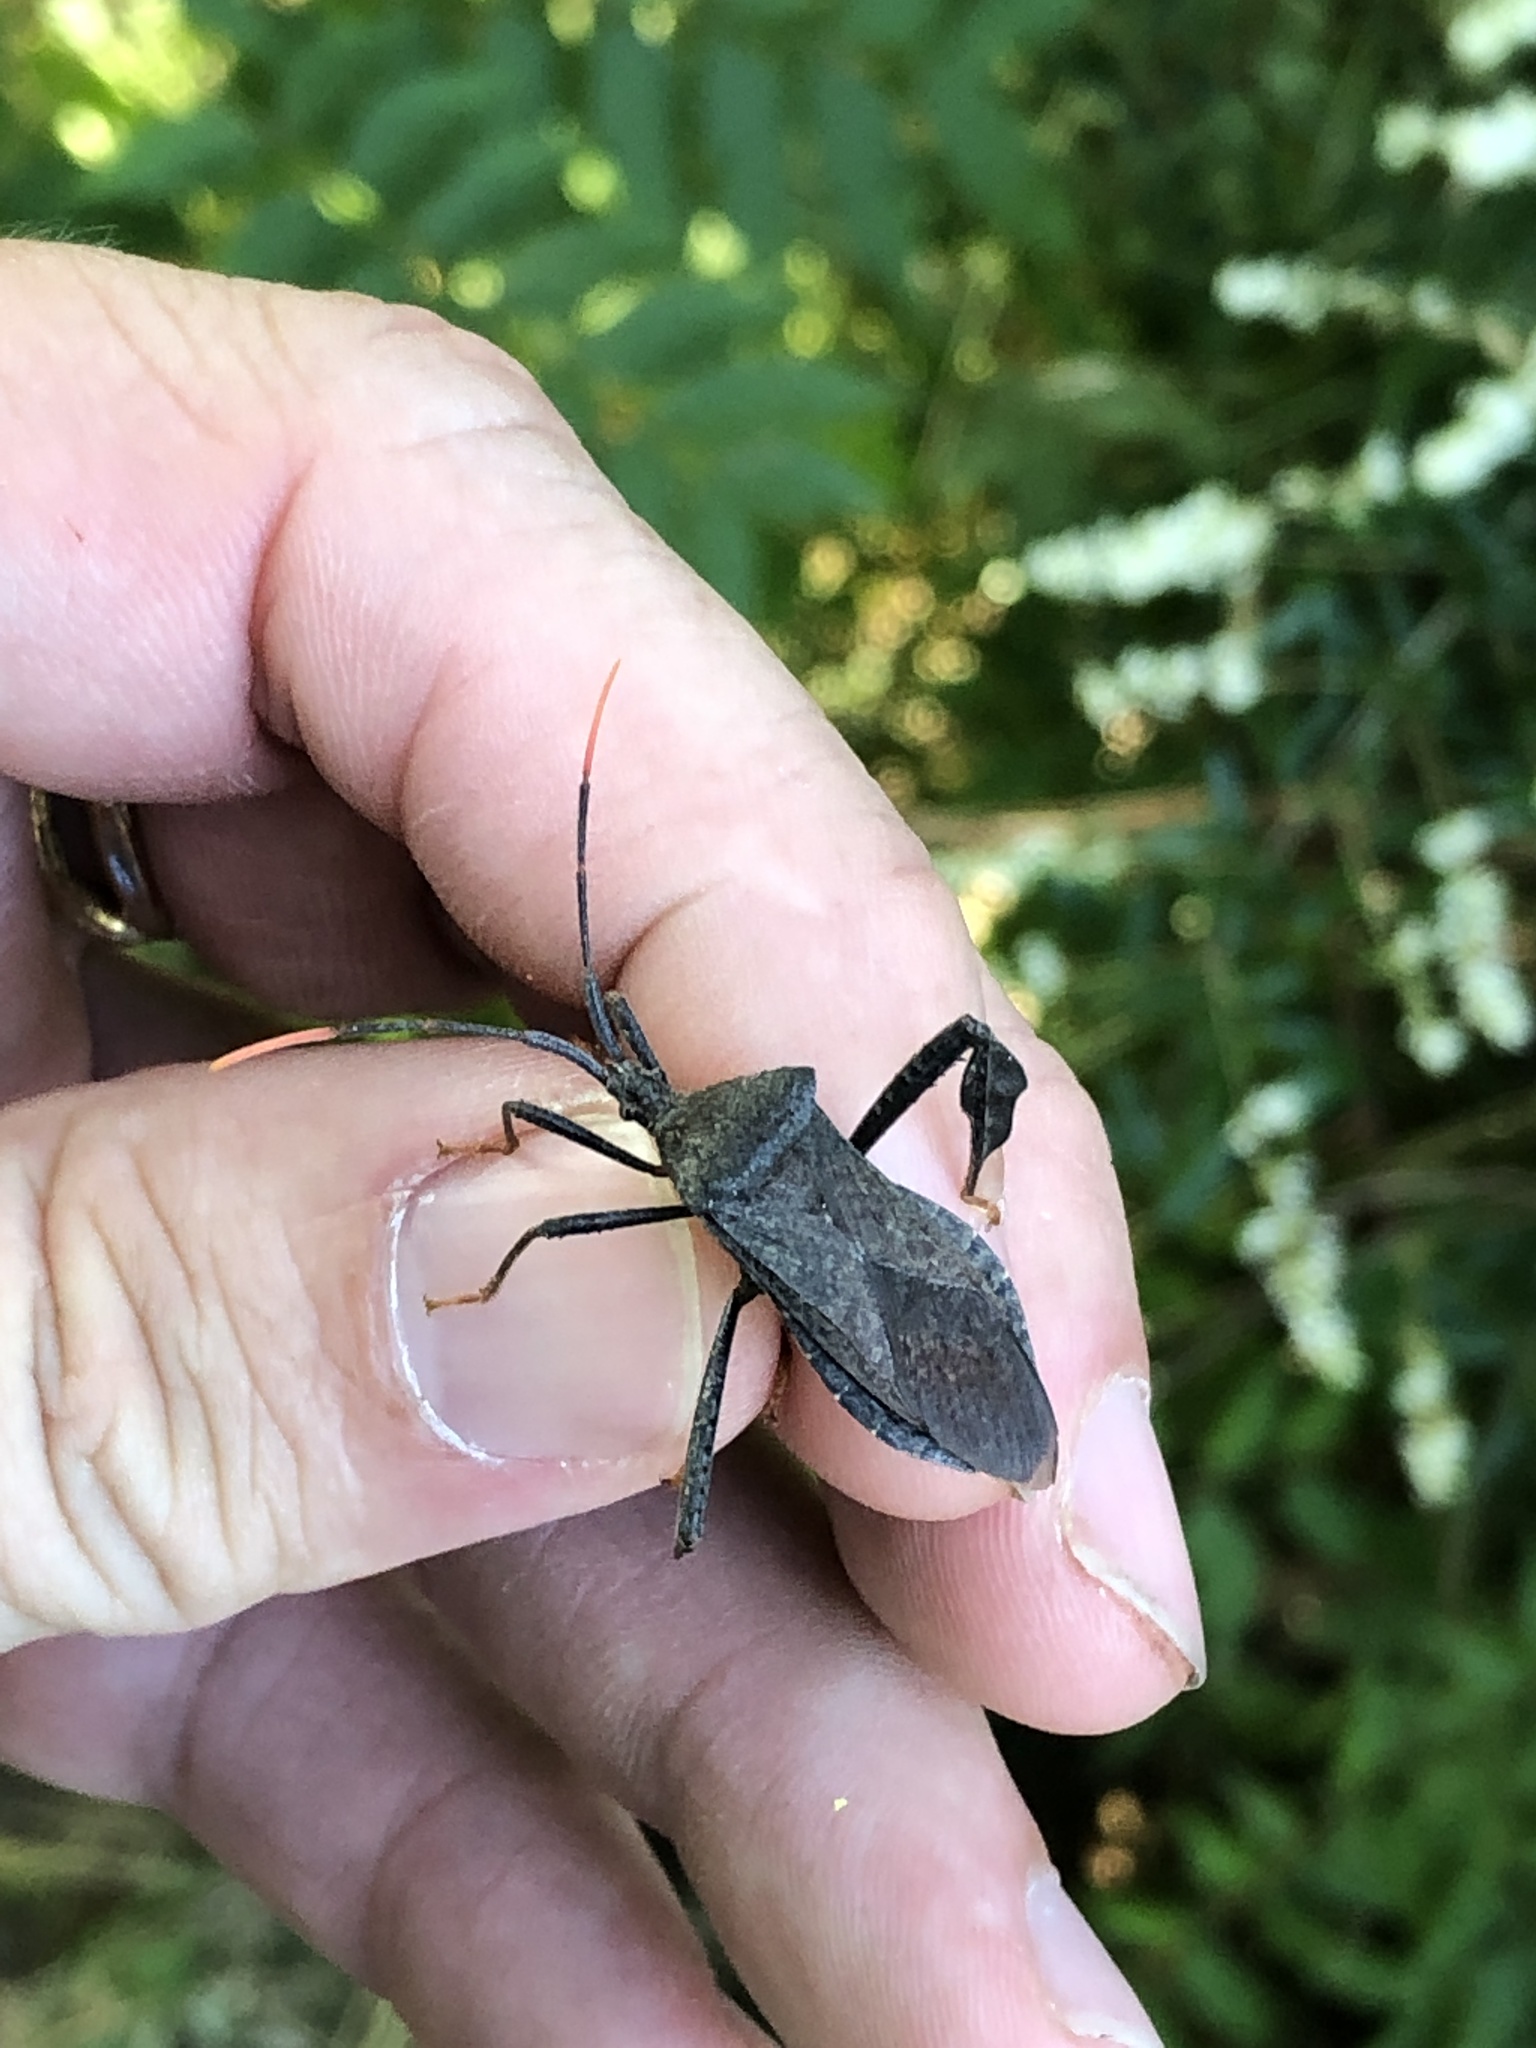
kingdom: Animalia
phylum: Arthropoda
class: Insecta
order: Hemiptera
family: Coreidae
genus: Acanthocephala
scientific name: Acanthocephala terminalis
